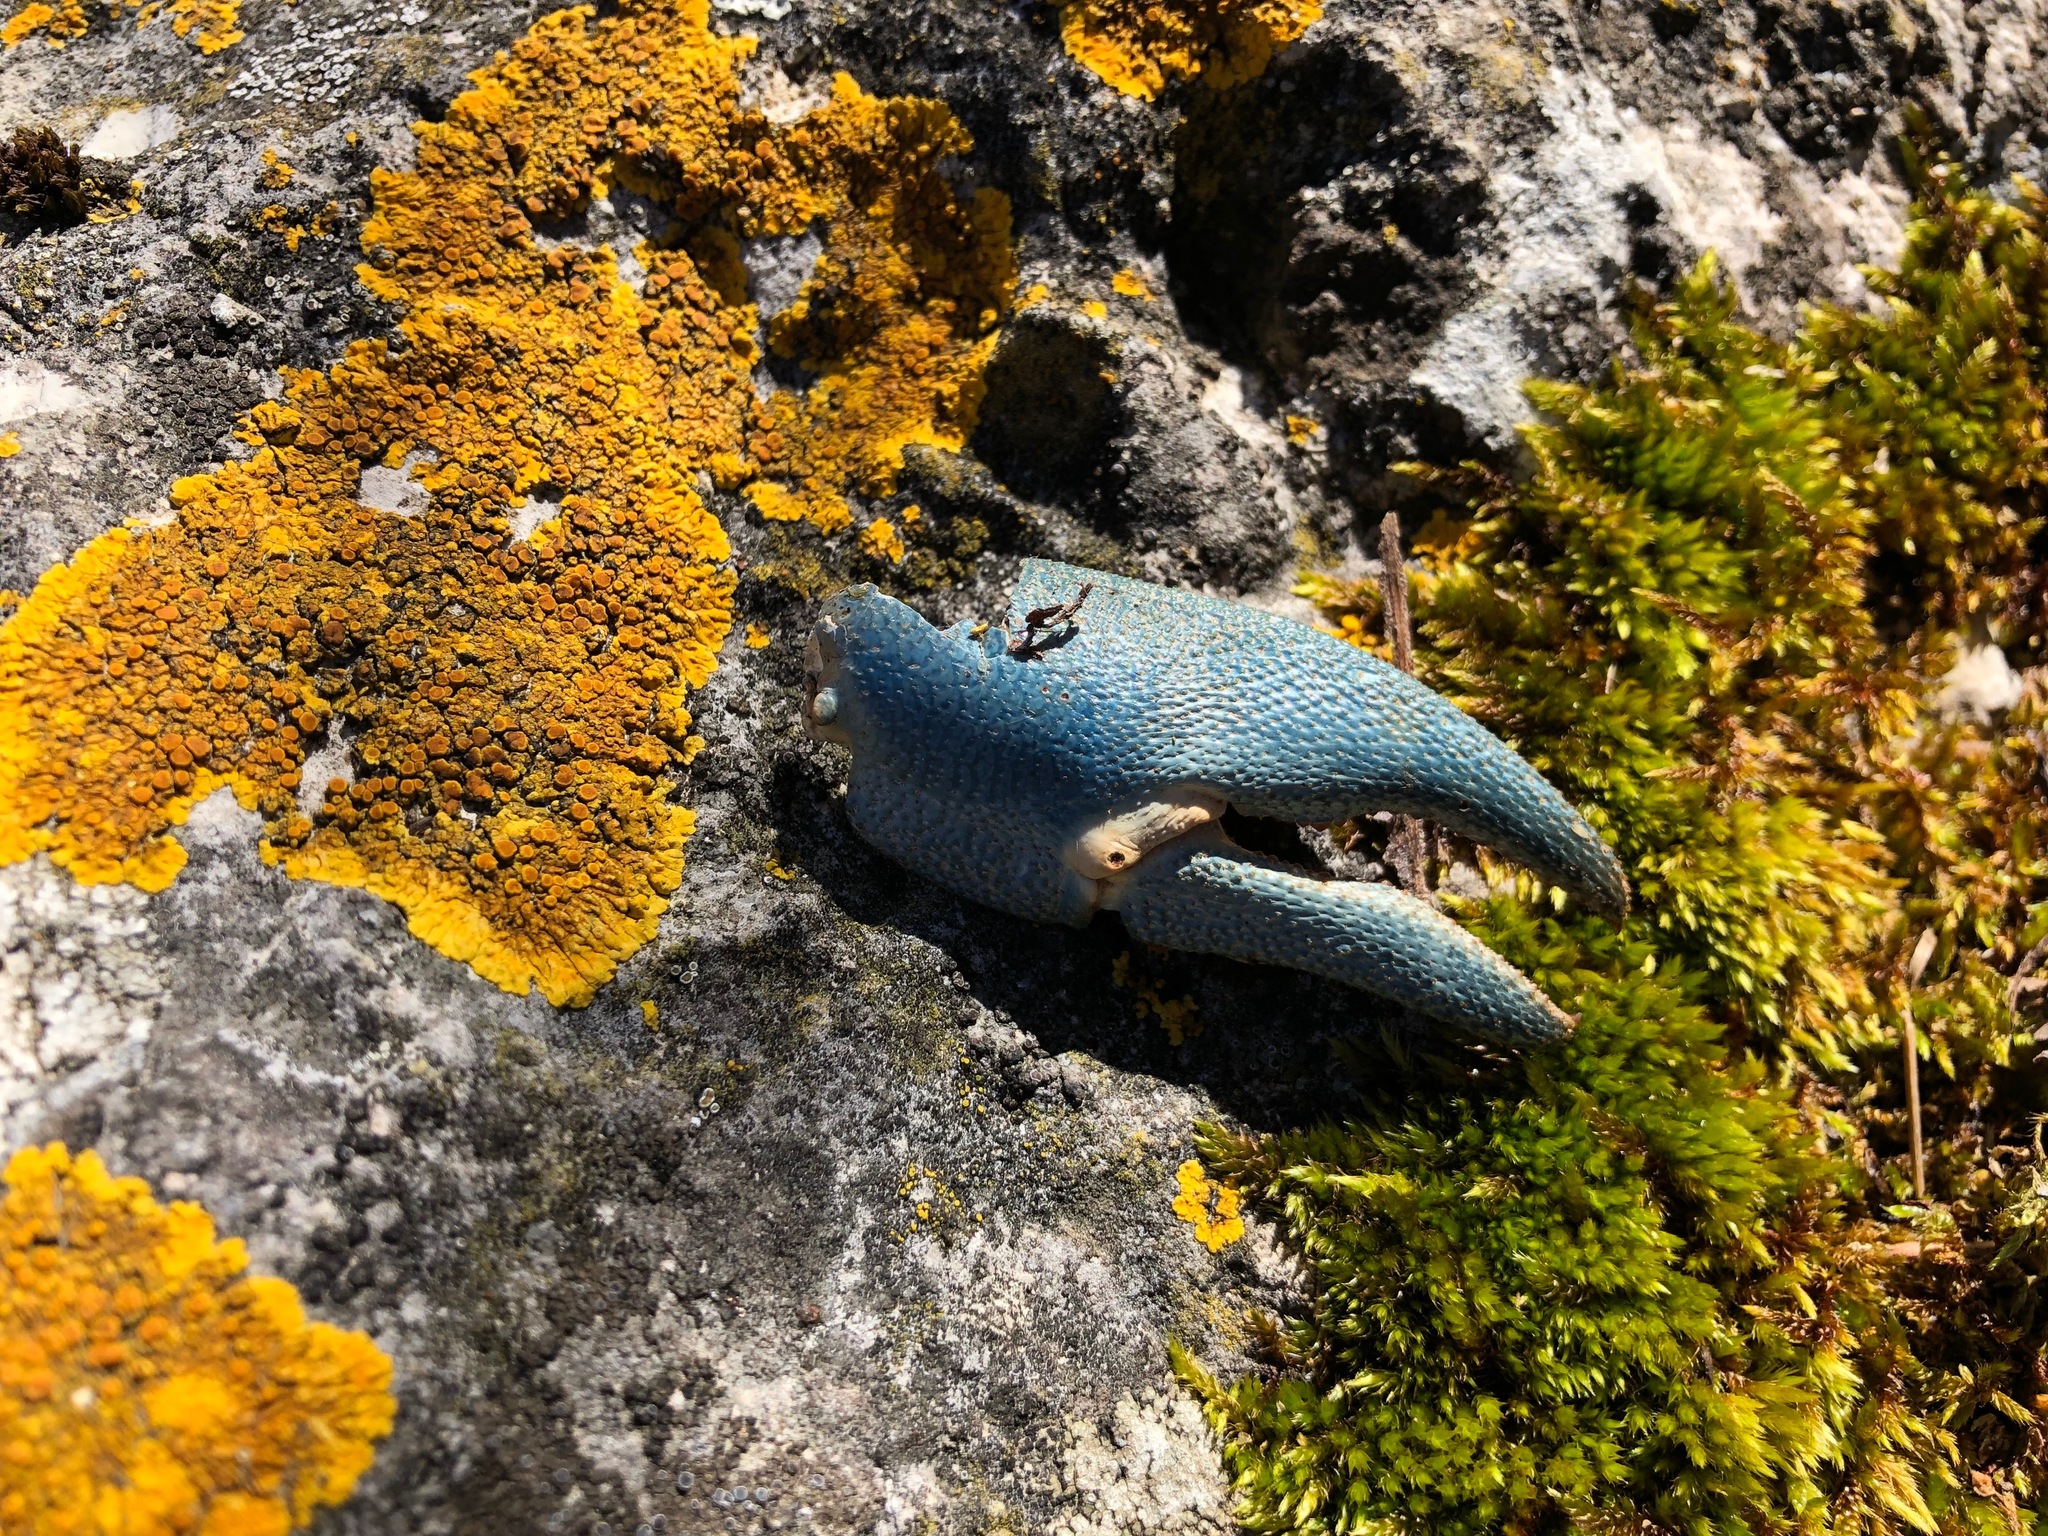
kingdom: Animalia
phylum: Arthropoda
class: Malacostraca
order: Decapoda
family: Astacidae
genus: Pacifastacus
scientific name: Pacifastacus leniusculus
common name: Signal crayfish
